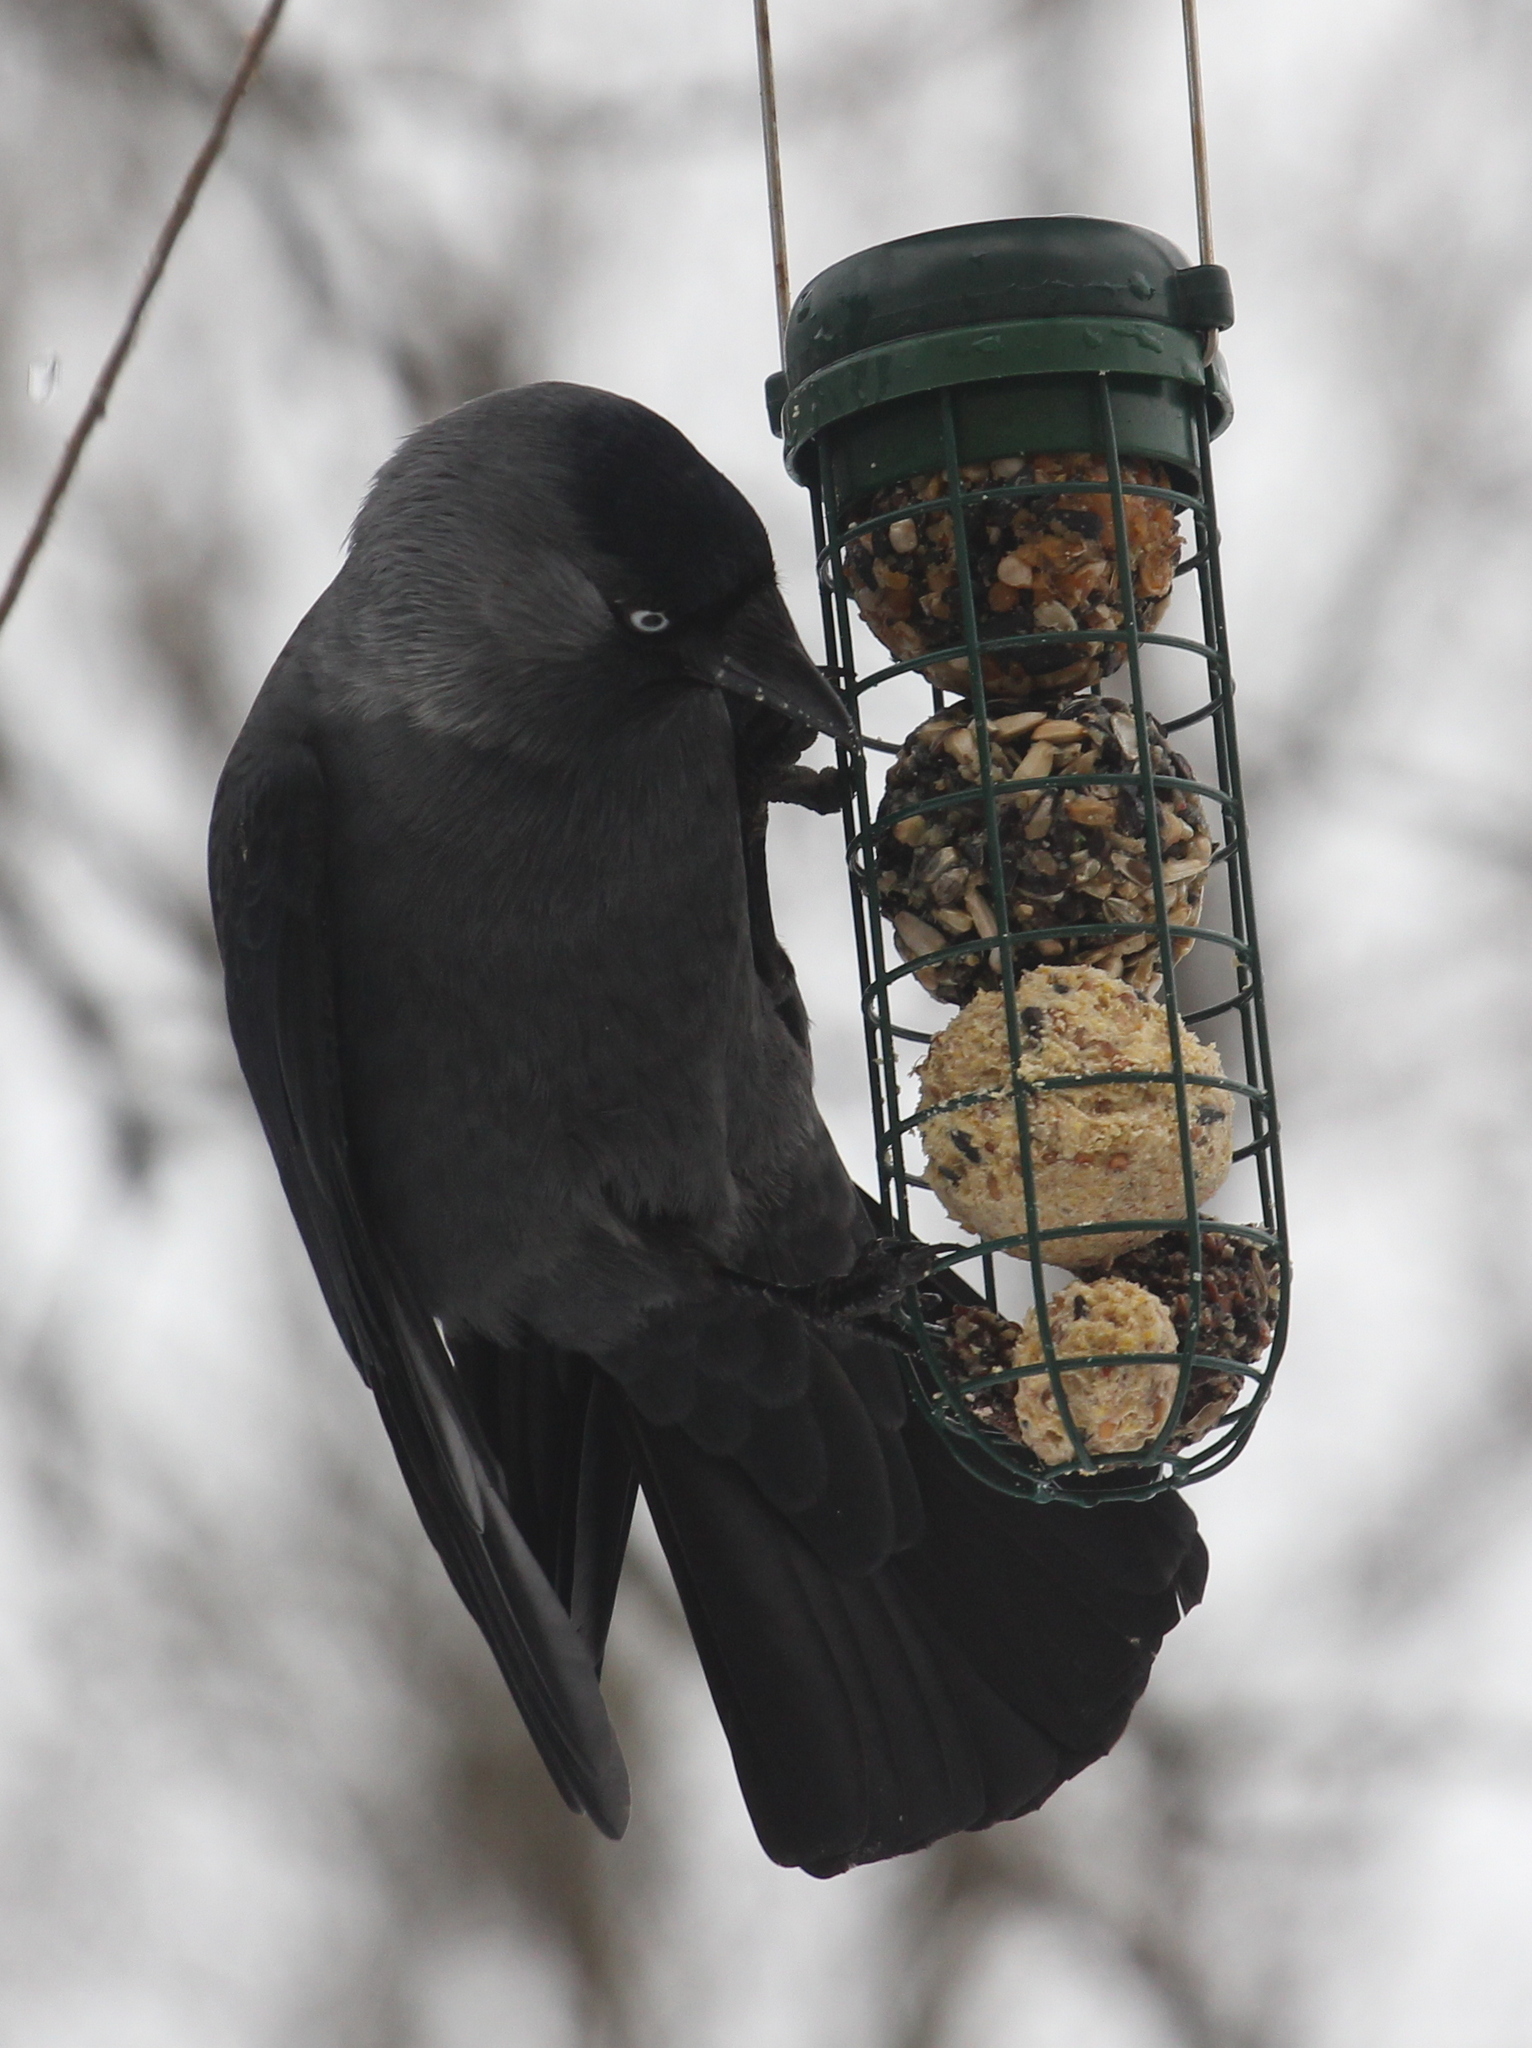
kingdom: Animalia
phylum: Chordata
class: Aves
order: Passeriformes
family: Corvidae
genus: Coloeus
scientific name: Coloeus monedula
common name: Western jackdaw
